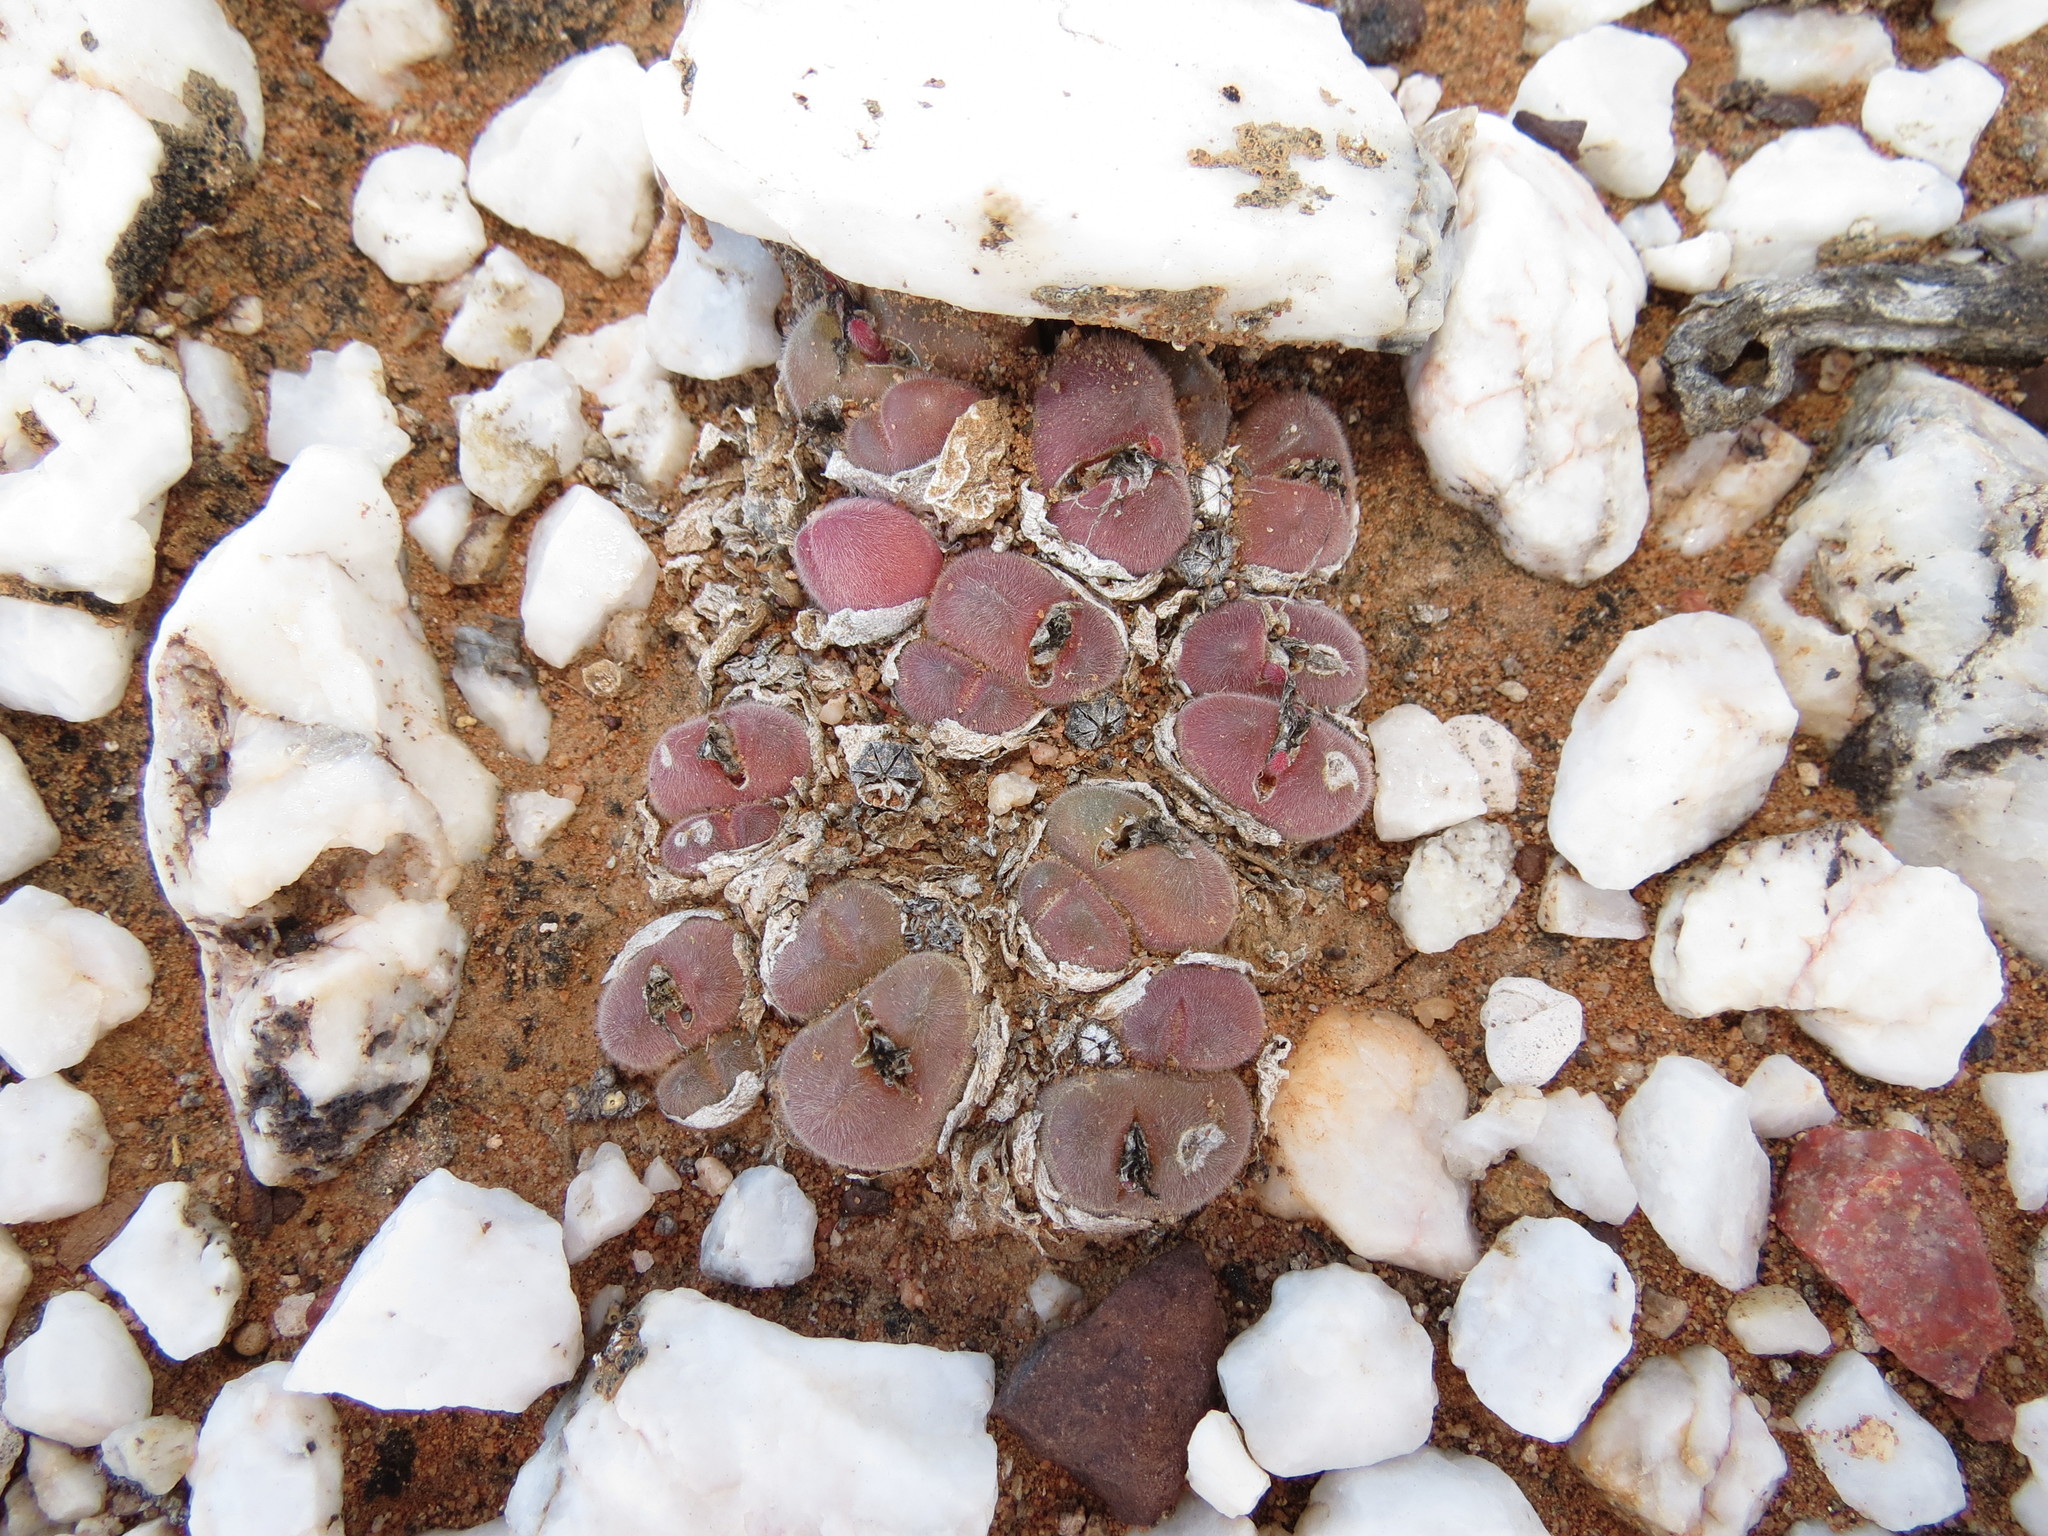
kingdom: Plantae
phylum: Tracheophyta
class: Magnoliopsida
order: Caryophyllales
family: Aizoaceae
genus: Gibbaeum
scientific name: Gibbaeum pilosulum
